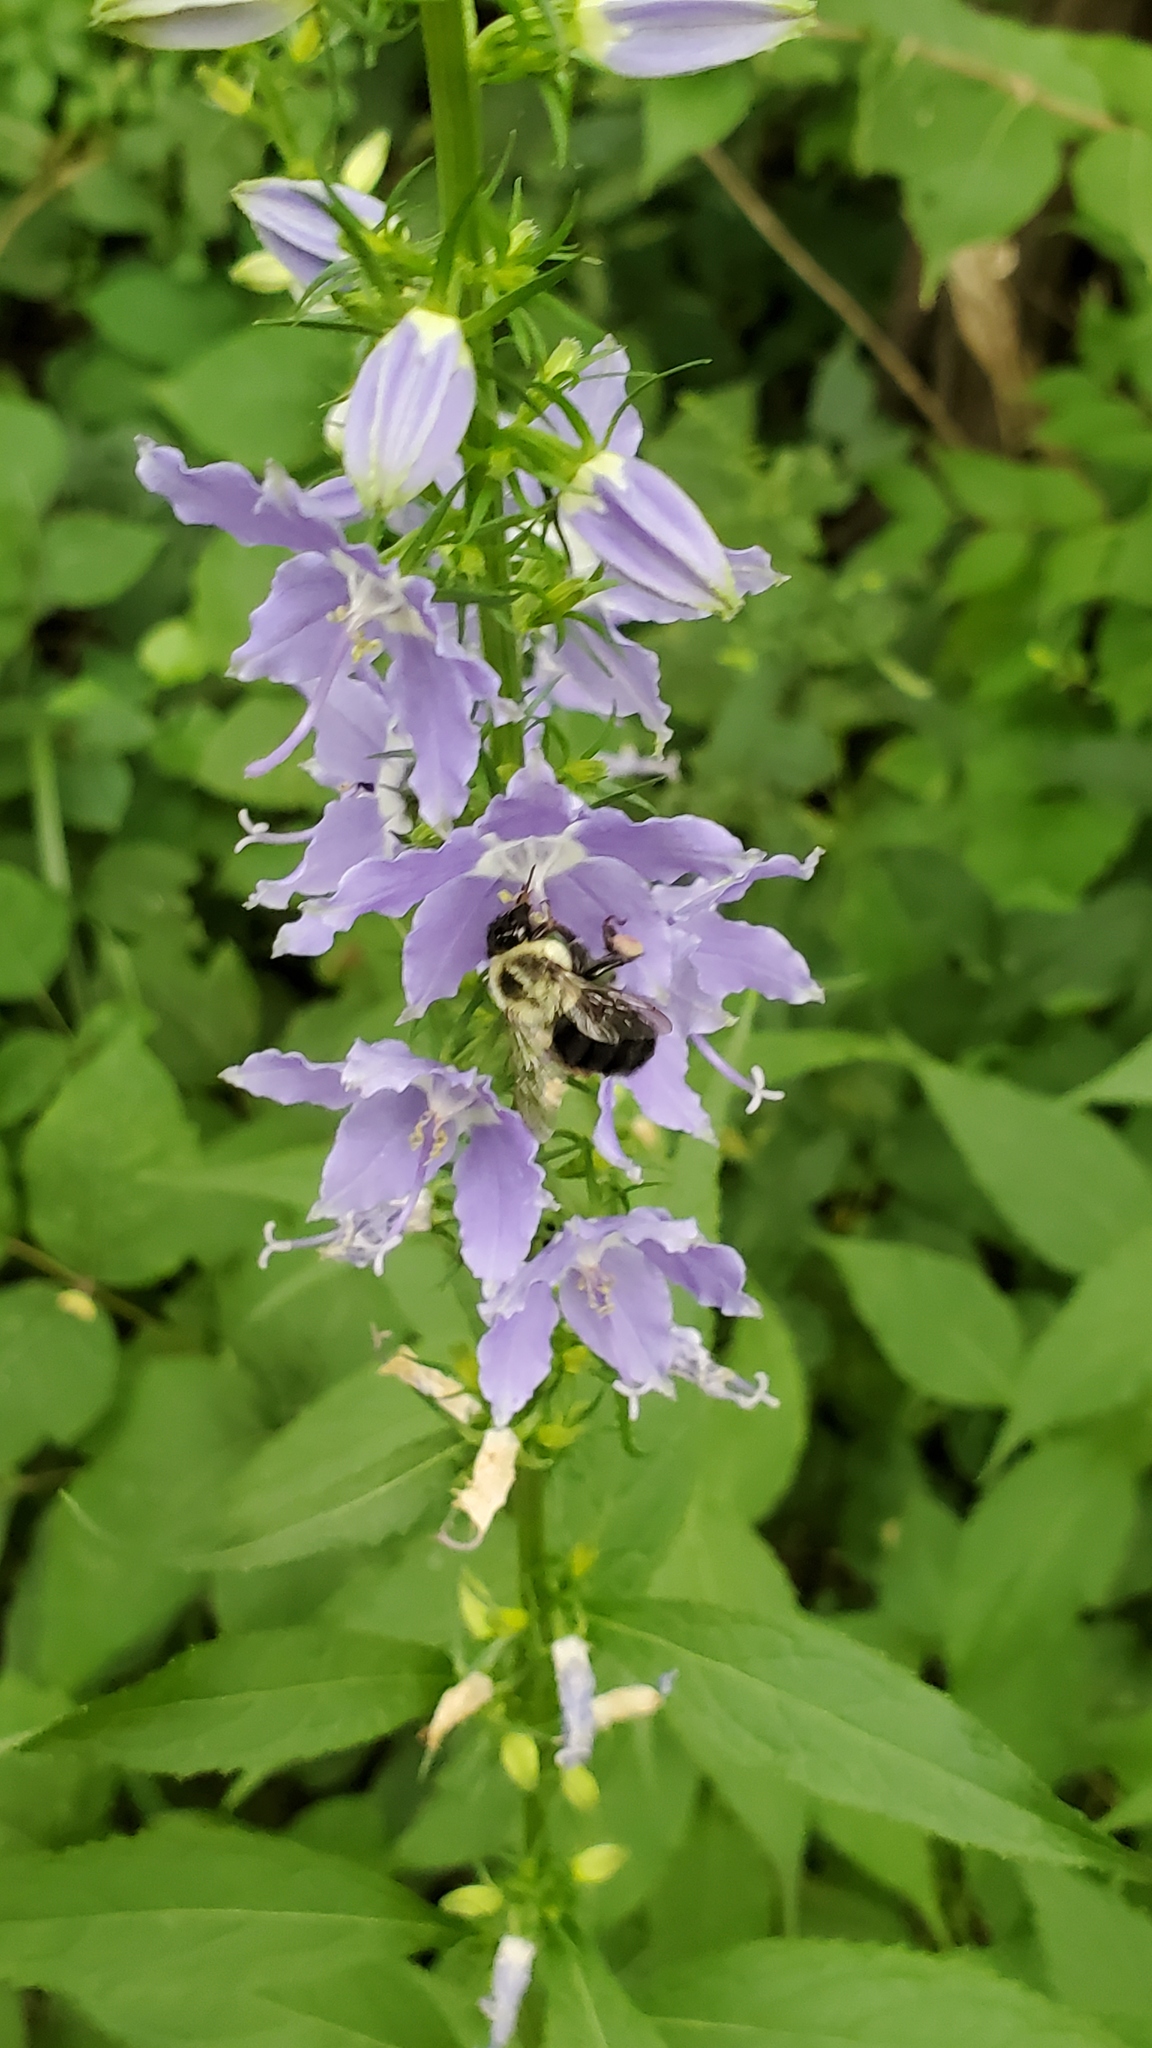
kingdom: Animalia
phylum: Arthropoda
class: Insecta
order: Hymenoptera
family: Apidae
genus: Bombus
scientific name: Bombus impatiens
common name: Common eastern bumble bee
